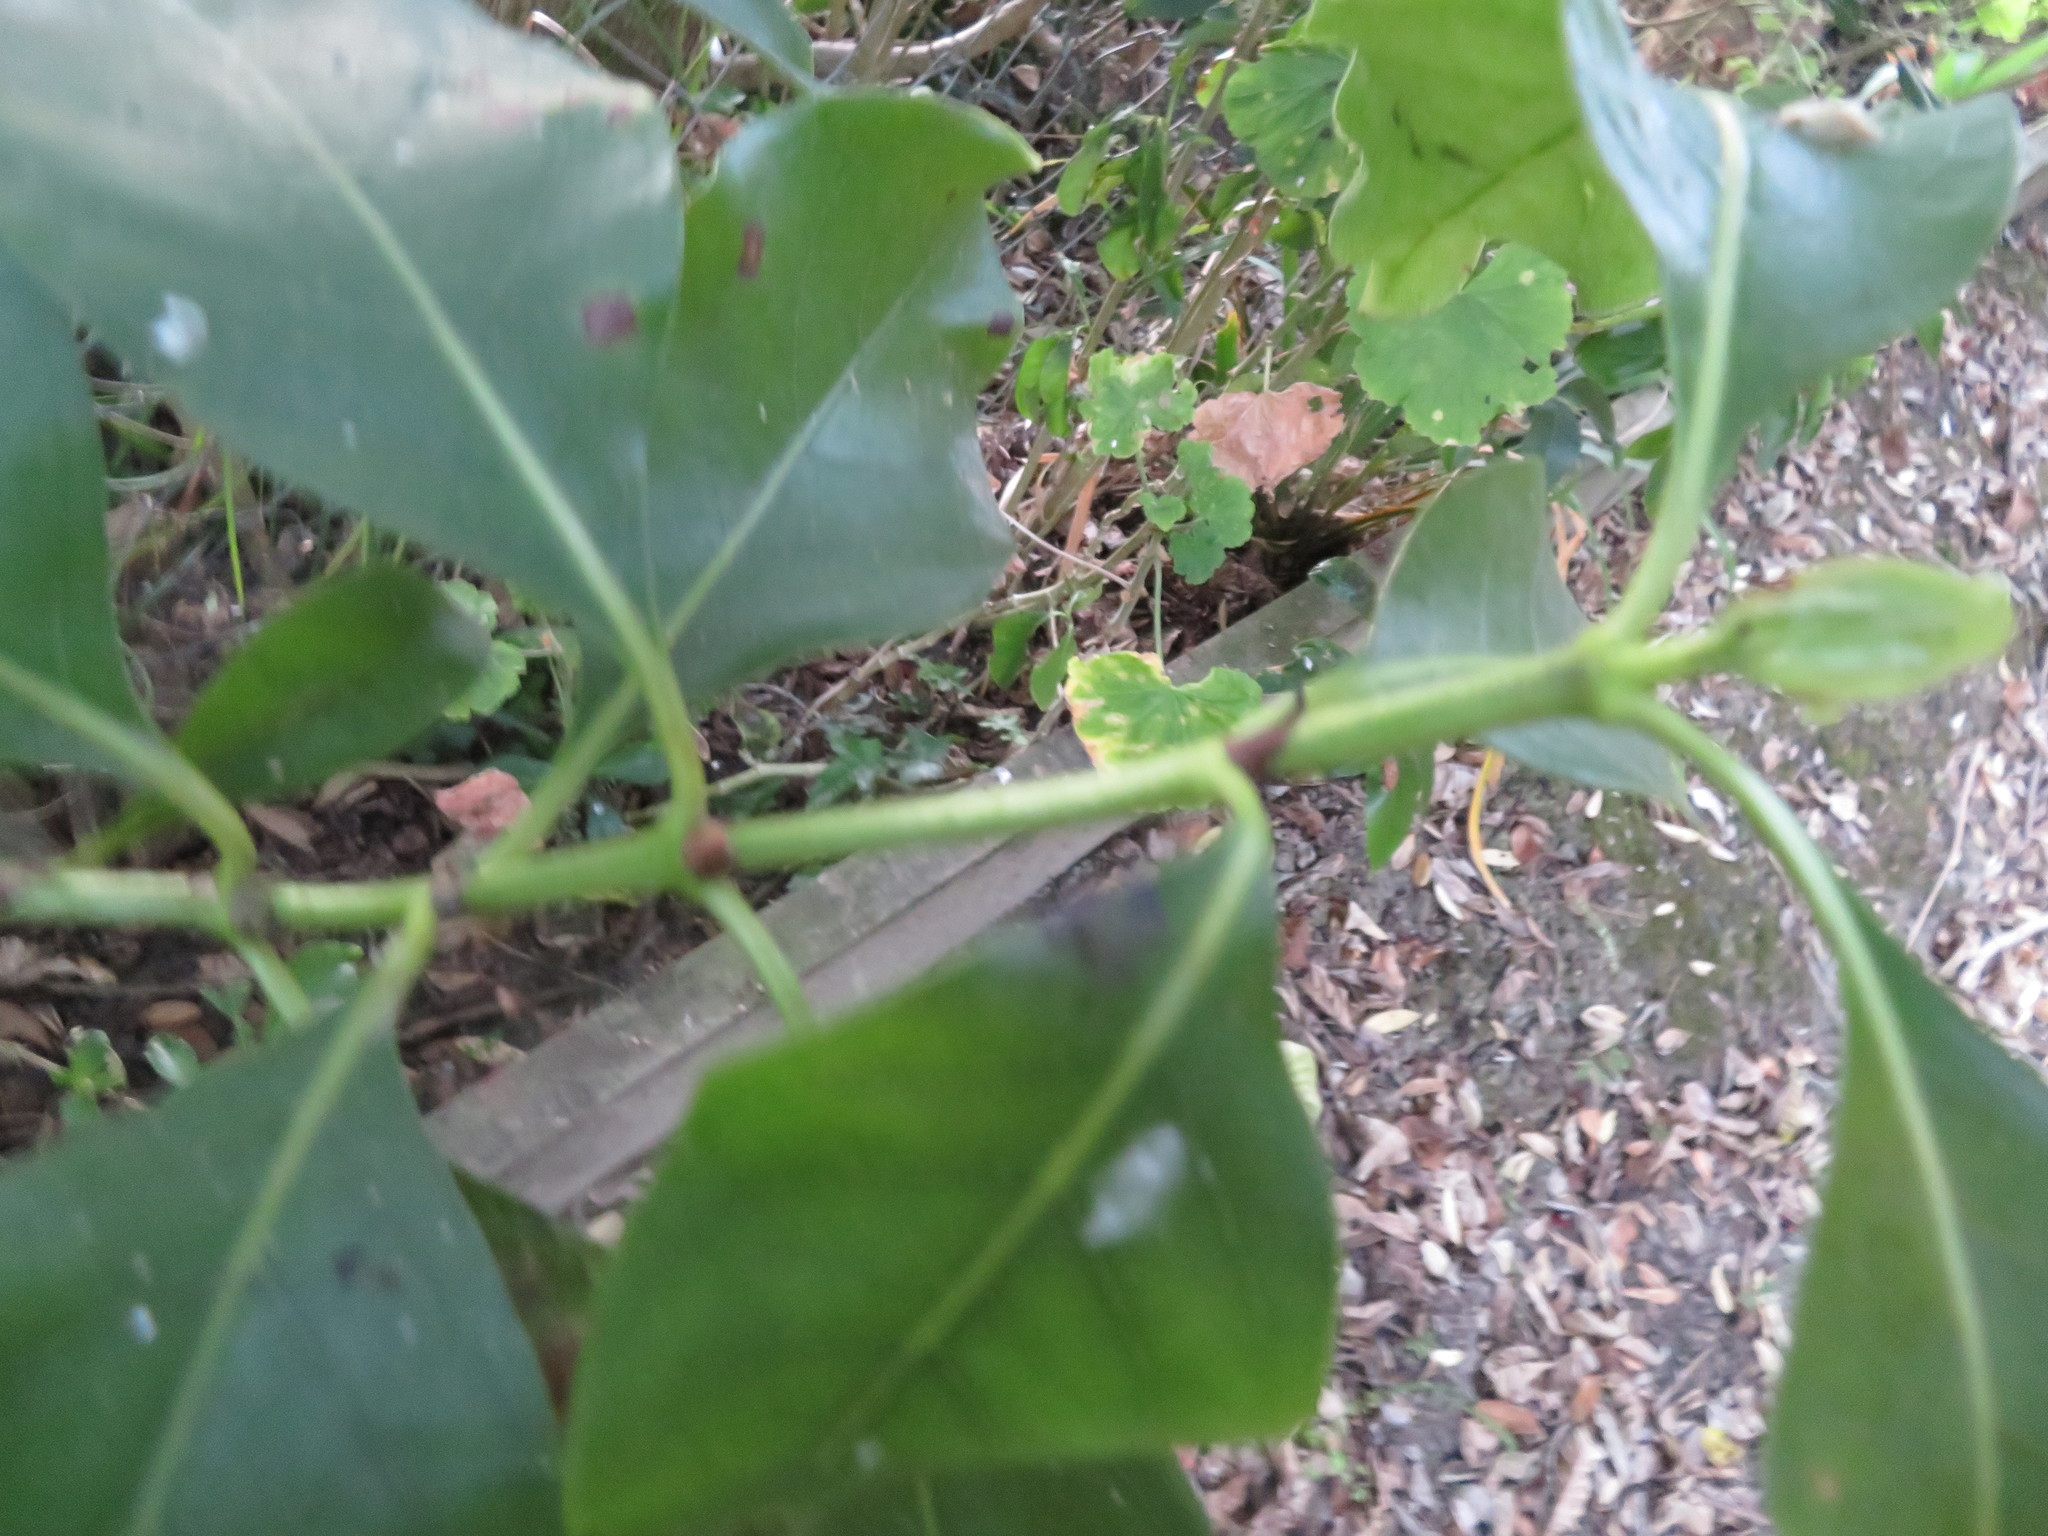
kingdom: Plantae
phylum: Tracheophyta
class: Magnoliopsida
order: Gentianales
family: Rubiaceae
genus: Coprosma
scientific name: Coprosma macrocarpa
